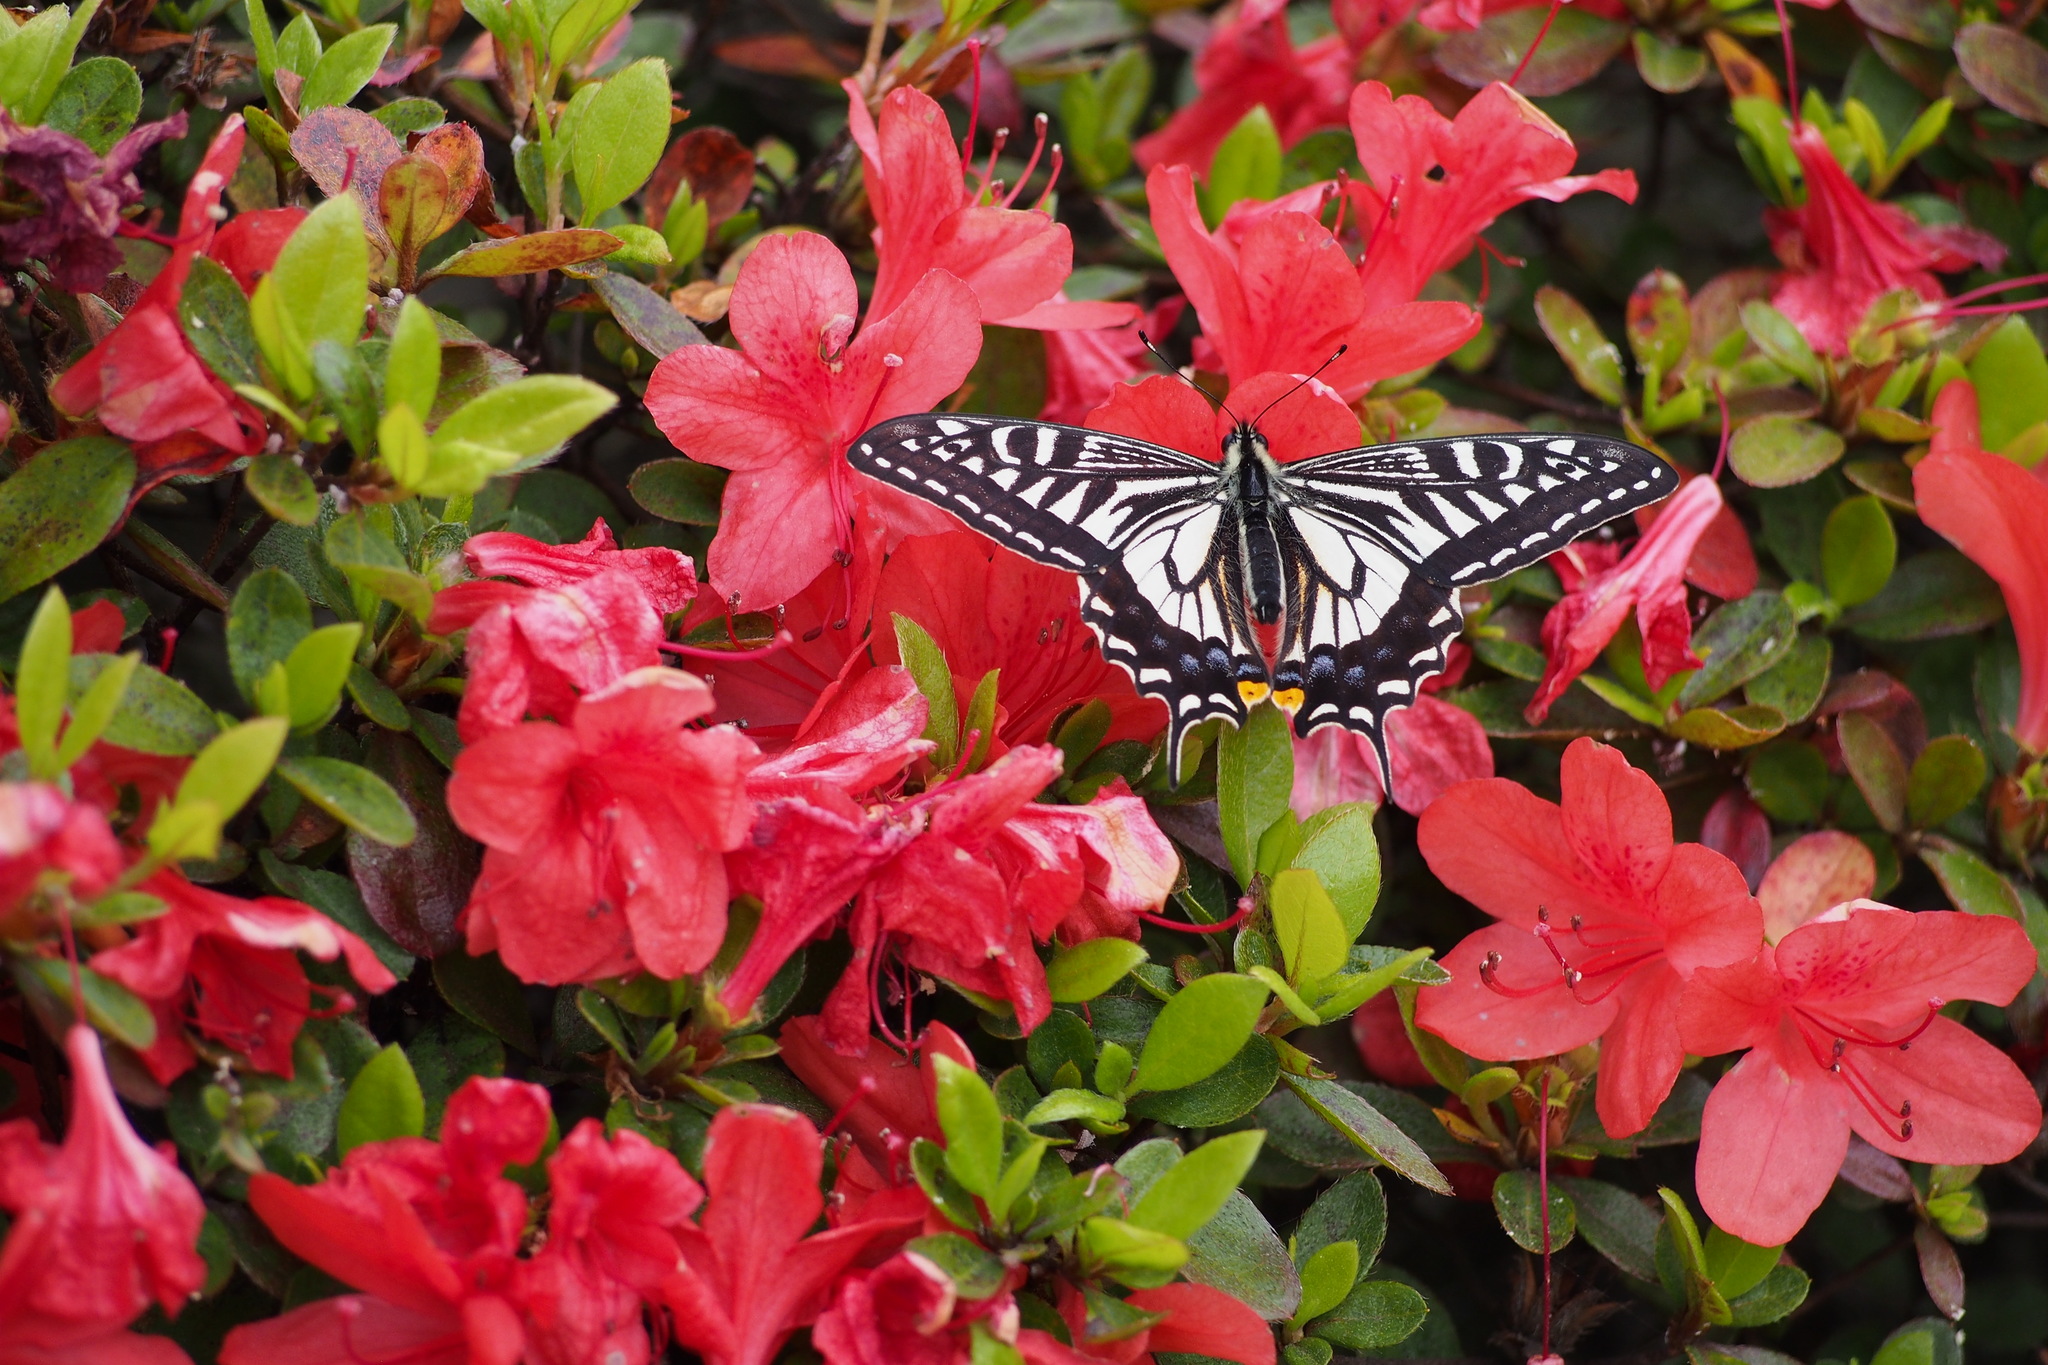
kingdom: Animalia
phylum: Arthropoda
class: Insecta
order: Lepidoptera
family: Papilionidae
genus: Papilio
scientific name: Papilio xuthus
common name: Asian swallowtail
